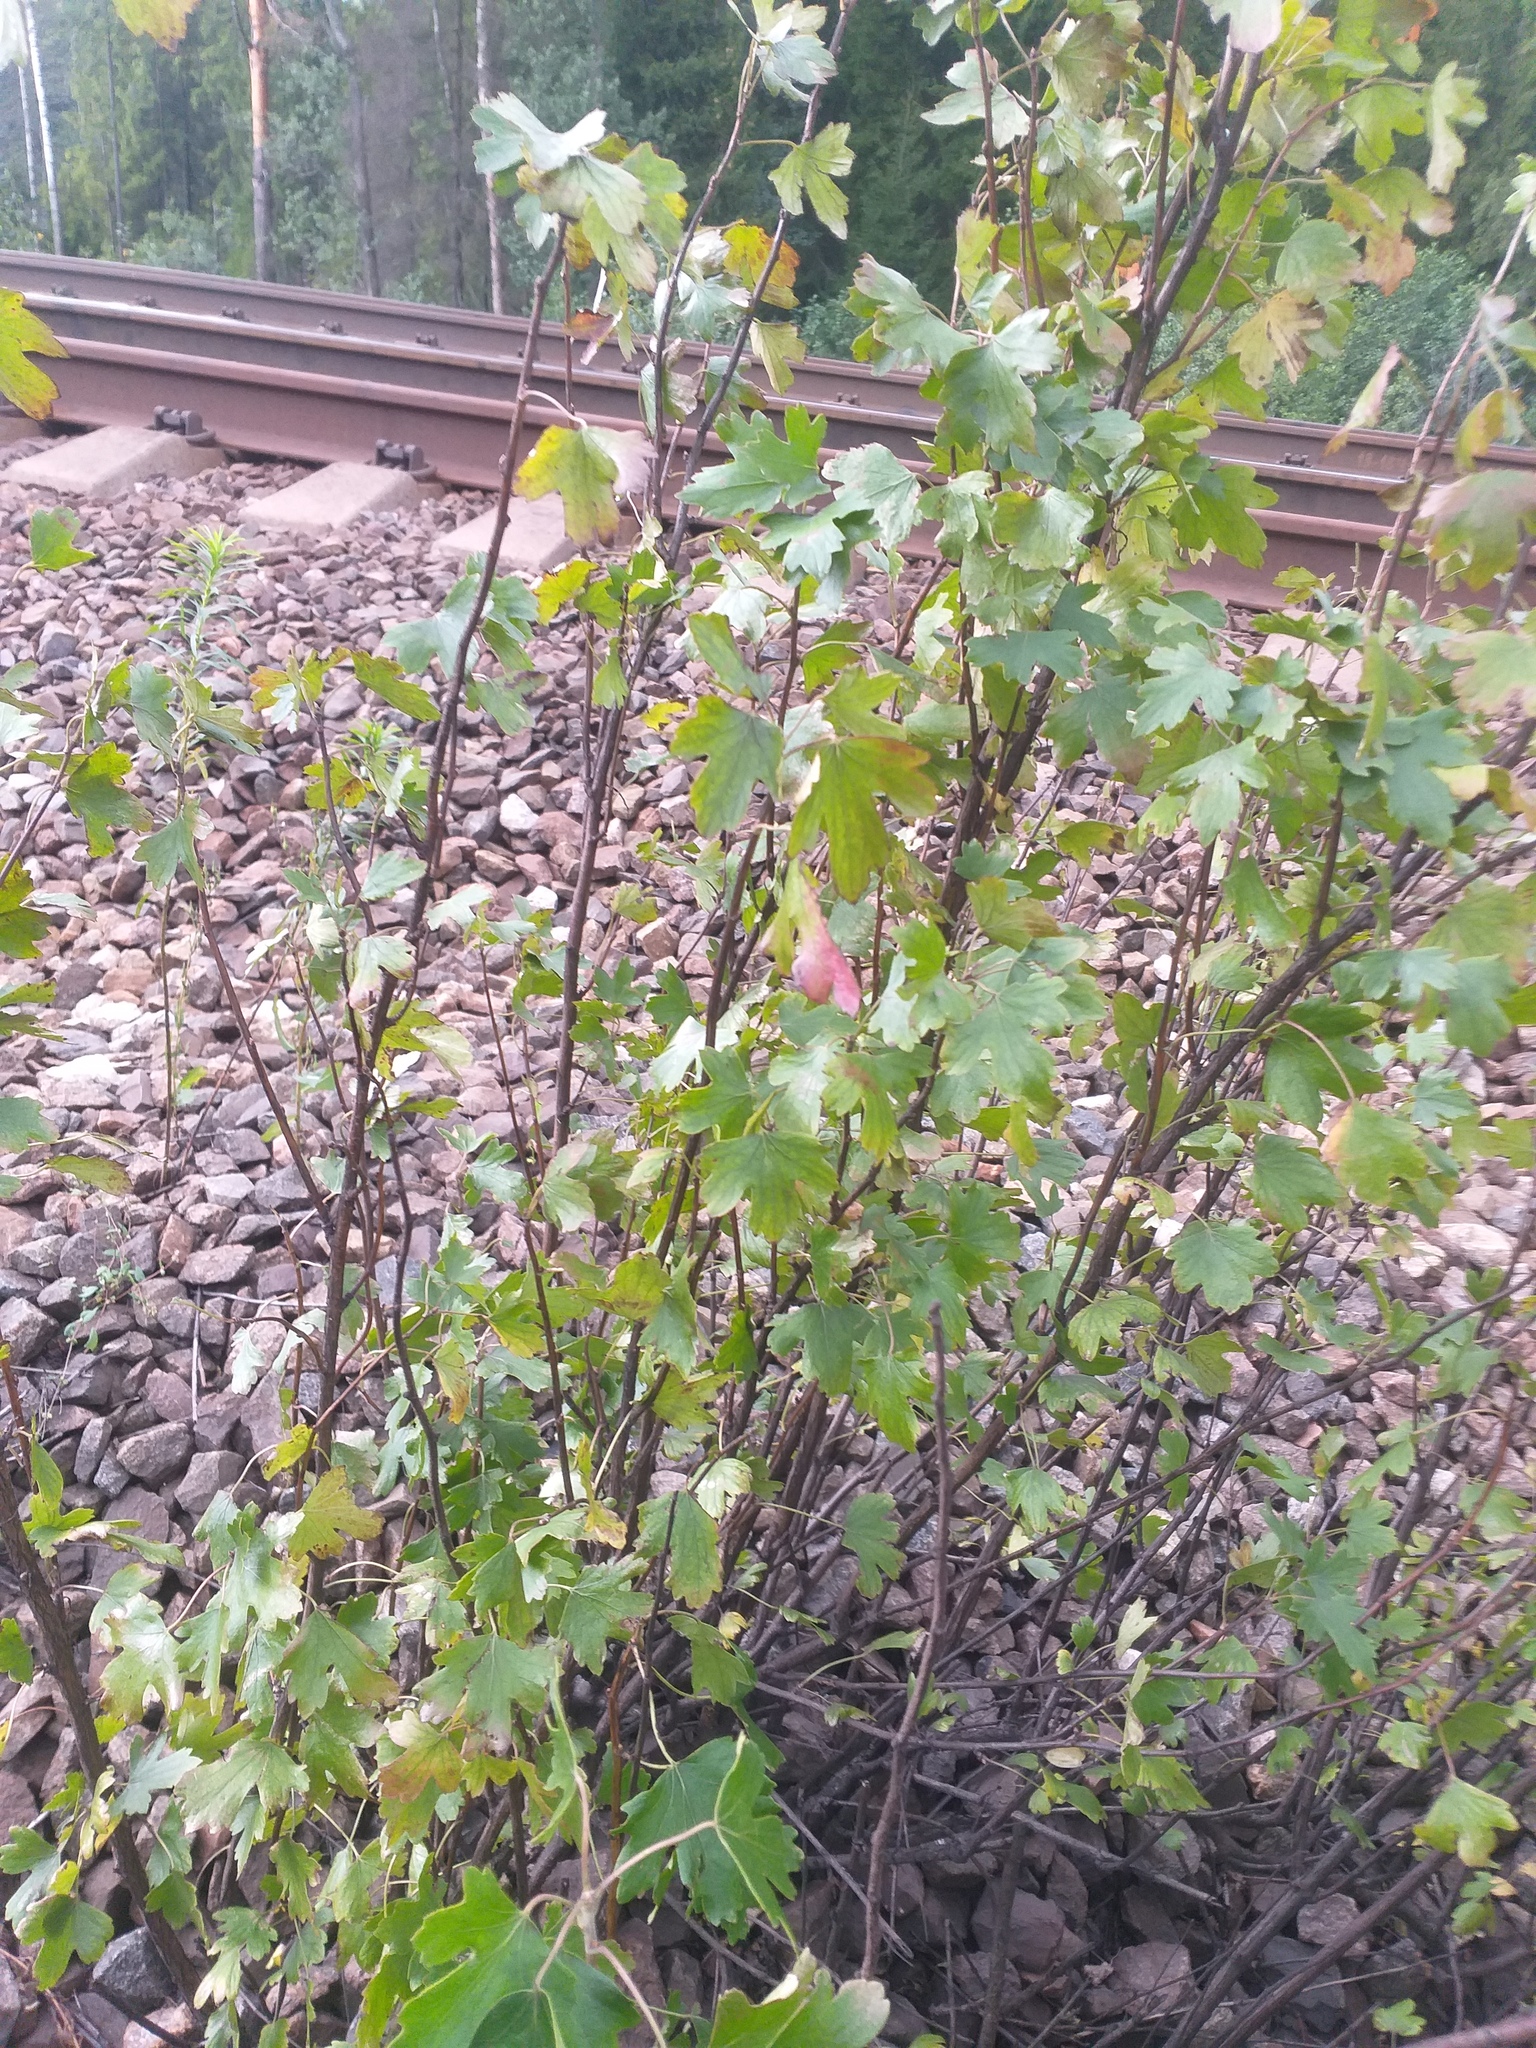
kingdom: Plantae
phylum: Tracheophyta
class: Magnoliopsida
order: Saxifragales
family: Grossulariaceae
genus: Ribes
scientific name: Ribes aureum
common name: Golden currant
